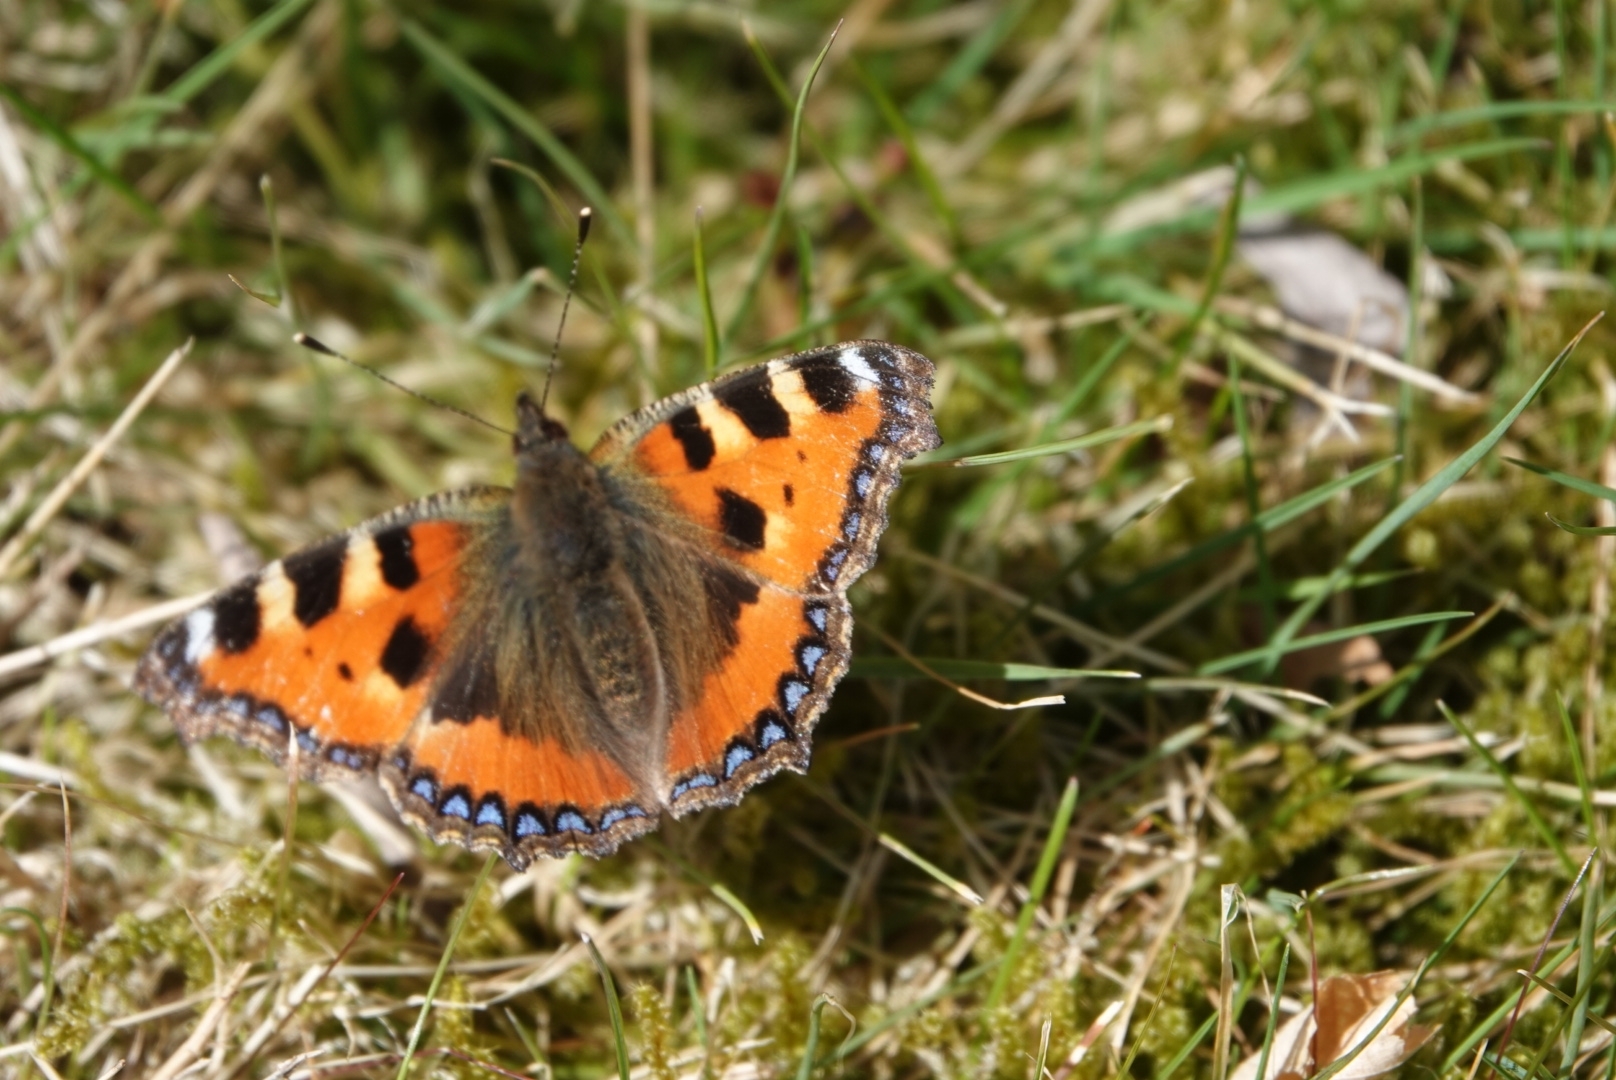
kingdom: Animalia
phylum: Arthropoda
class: Insecta
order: Lepidoptera
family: Nymphalidae
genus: Aglais
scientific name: Aglais urticae
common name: Small tortoiseshell
